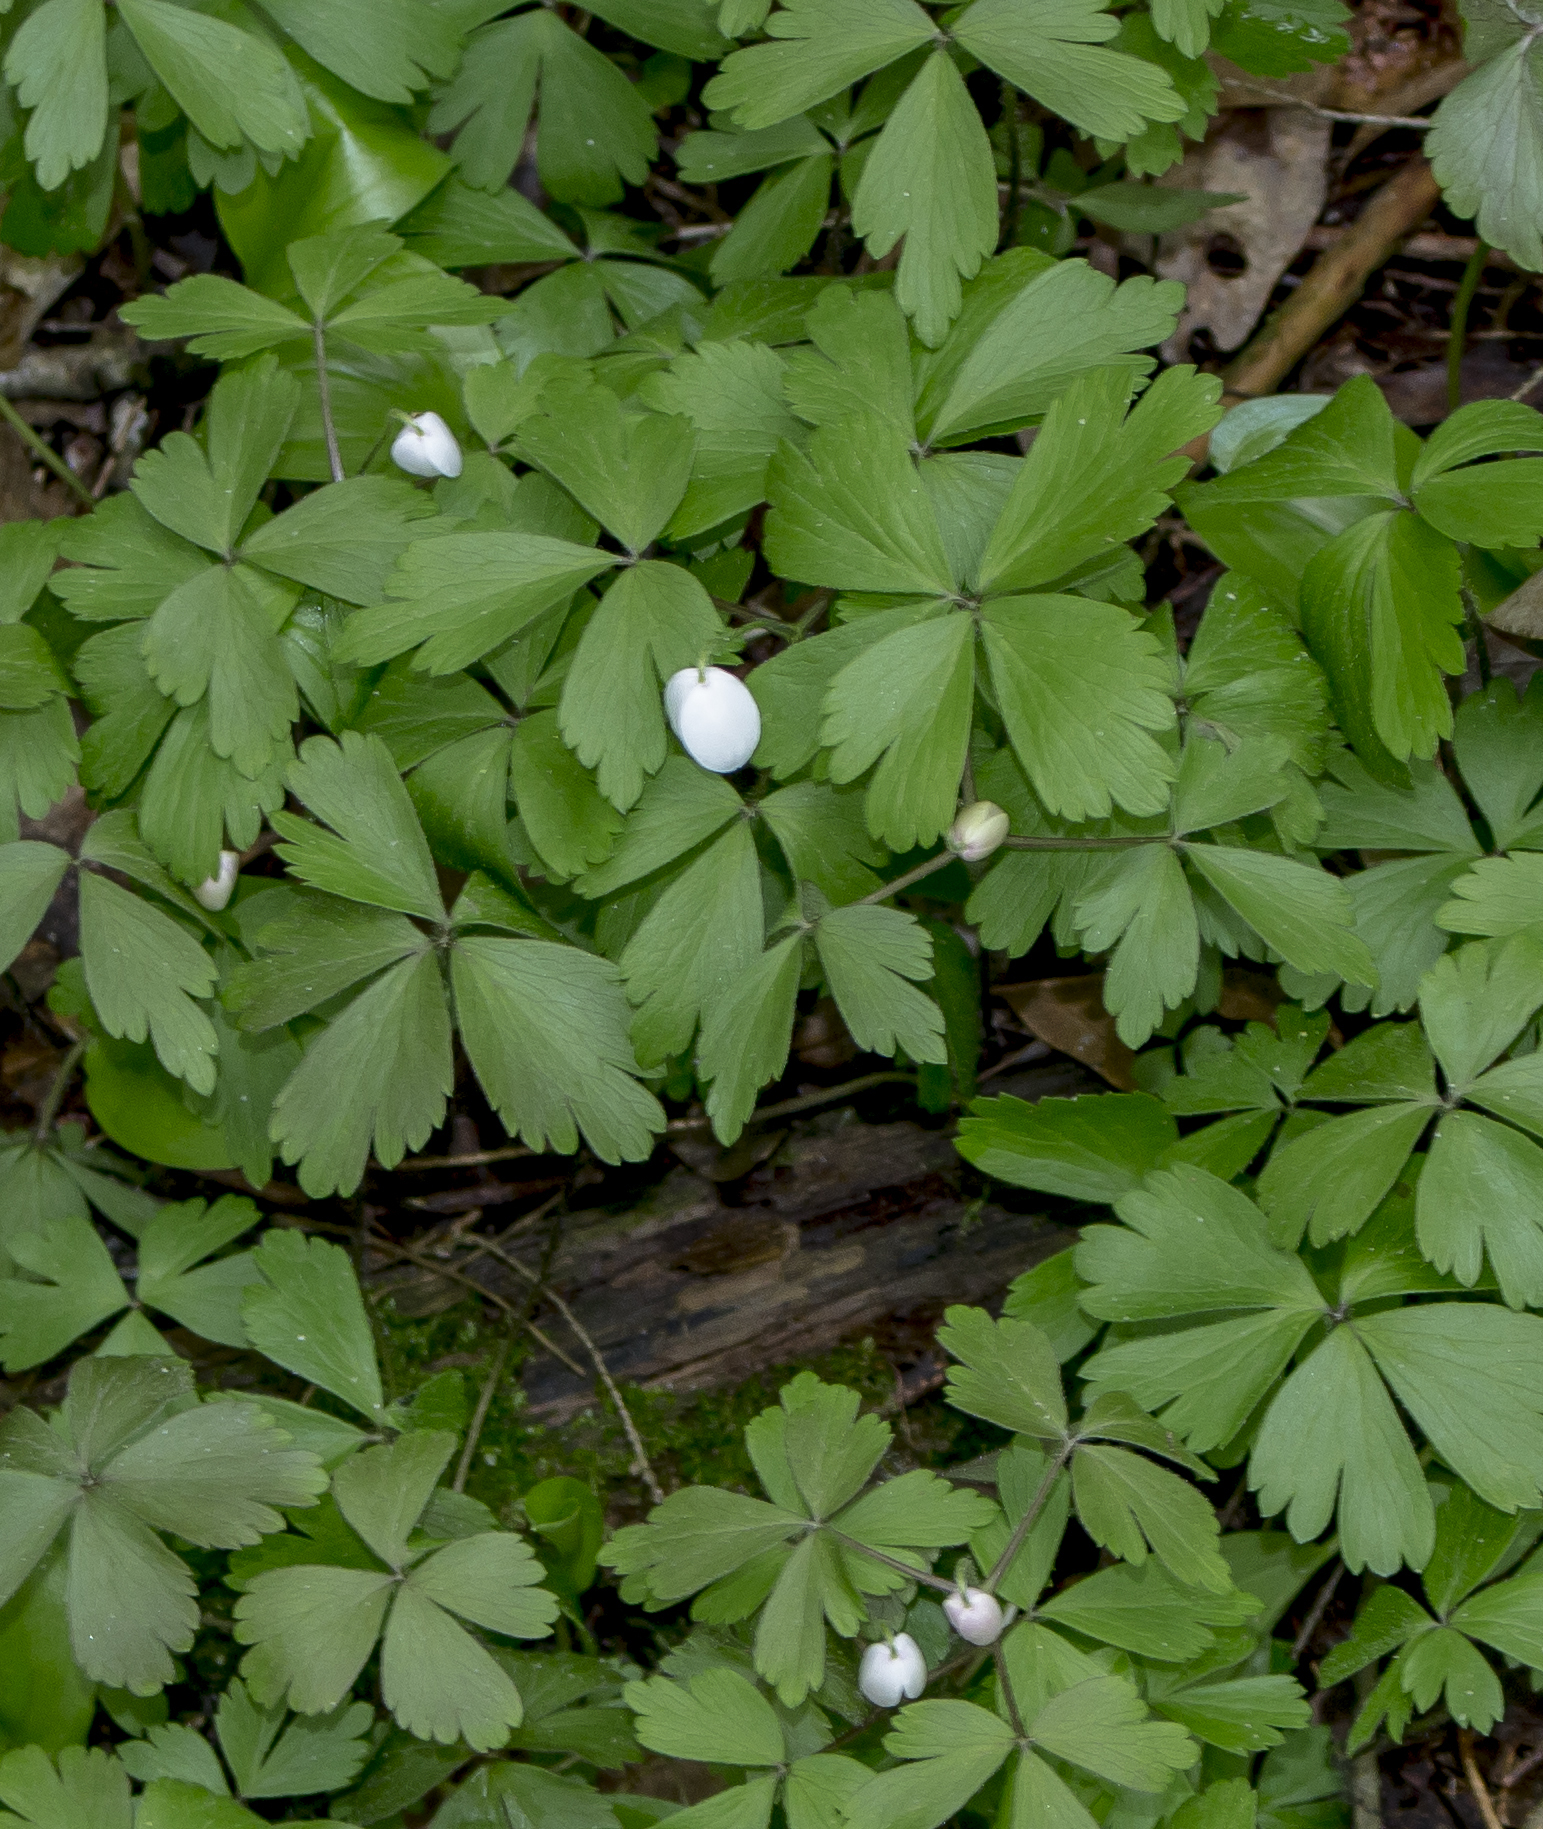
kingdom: Plantae
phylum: Tracheophyta
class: Magnoliopsida
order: Ranunculales
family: Ranunculaceae
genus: Anemone
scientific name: Anemone quinquefolia
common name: Wood anemone
